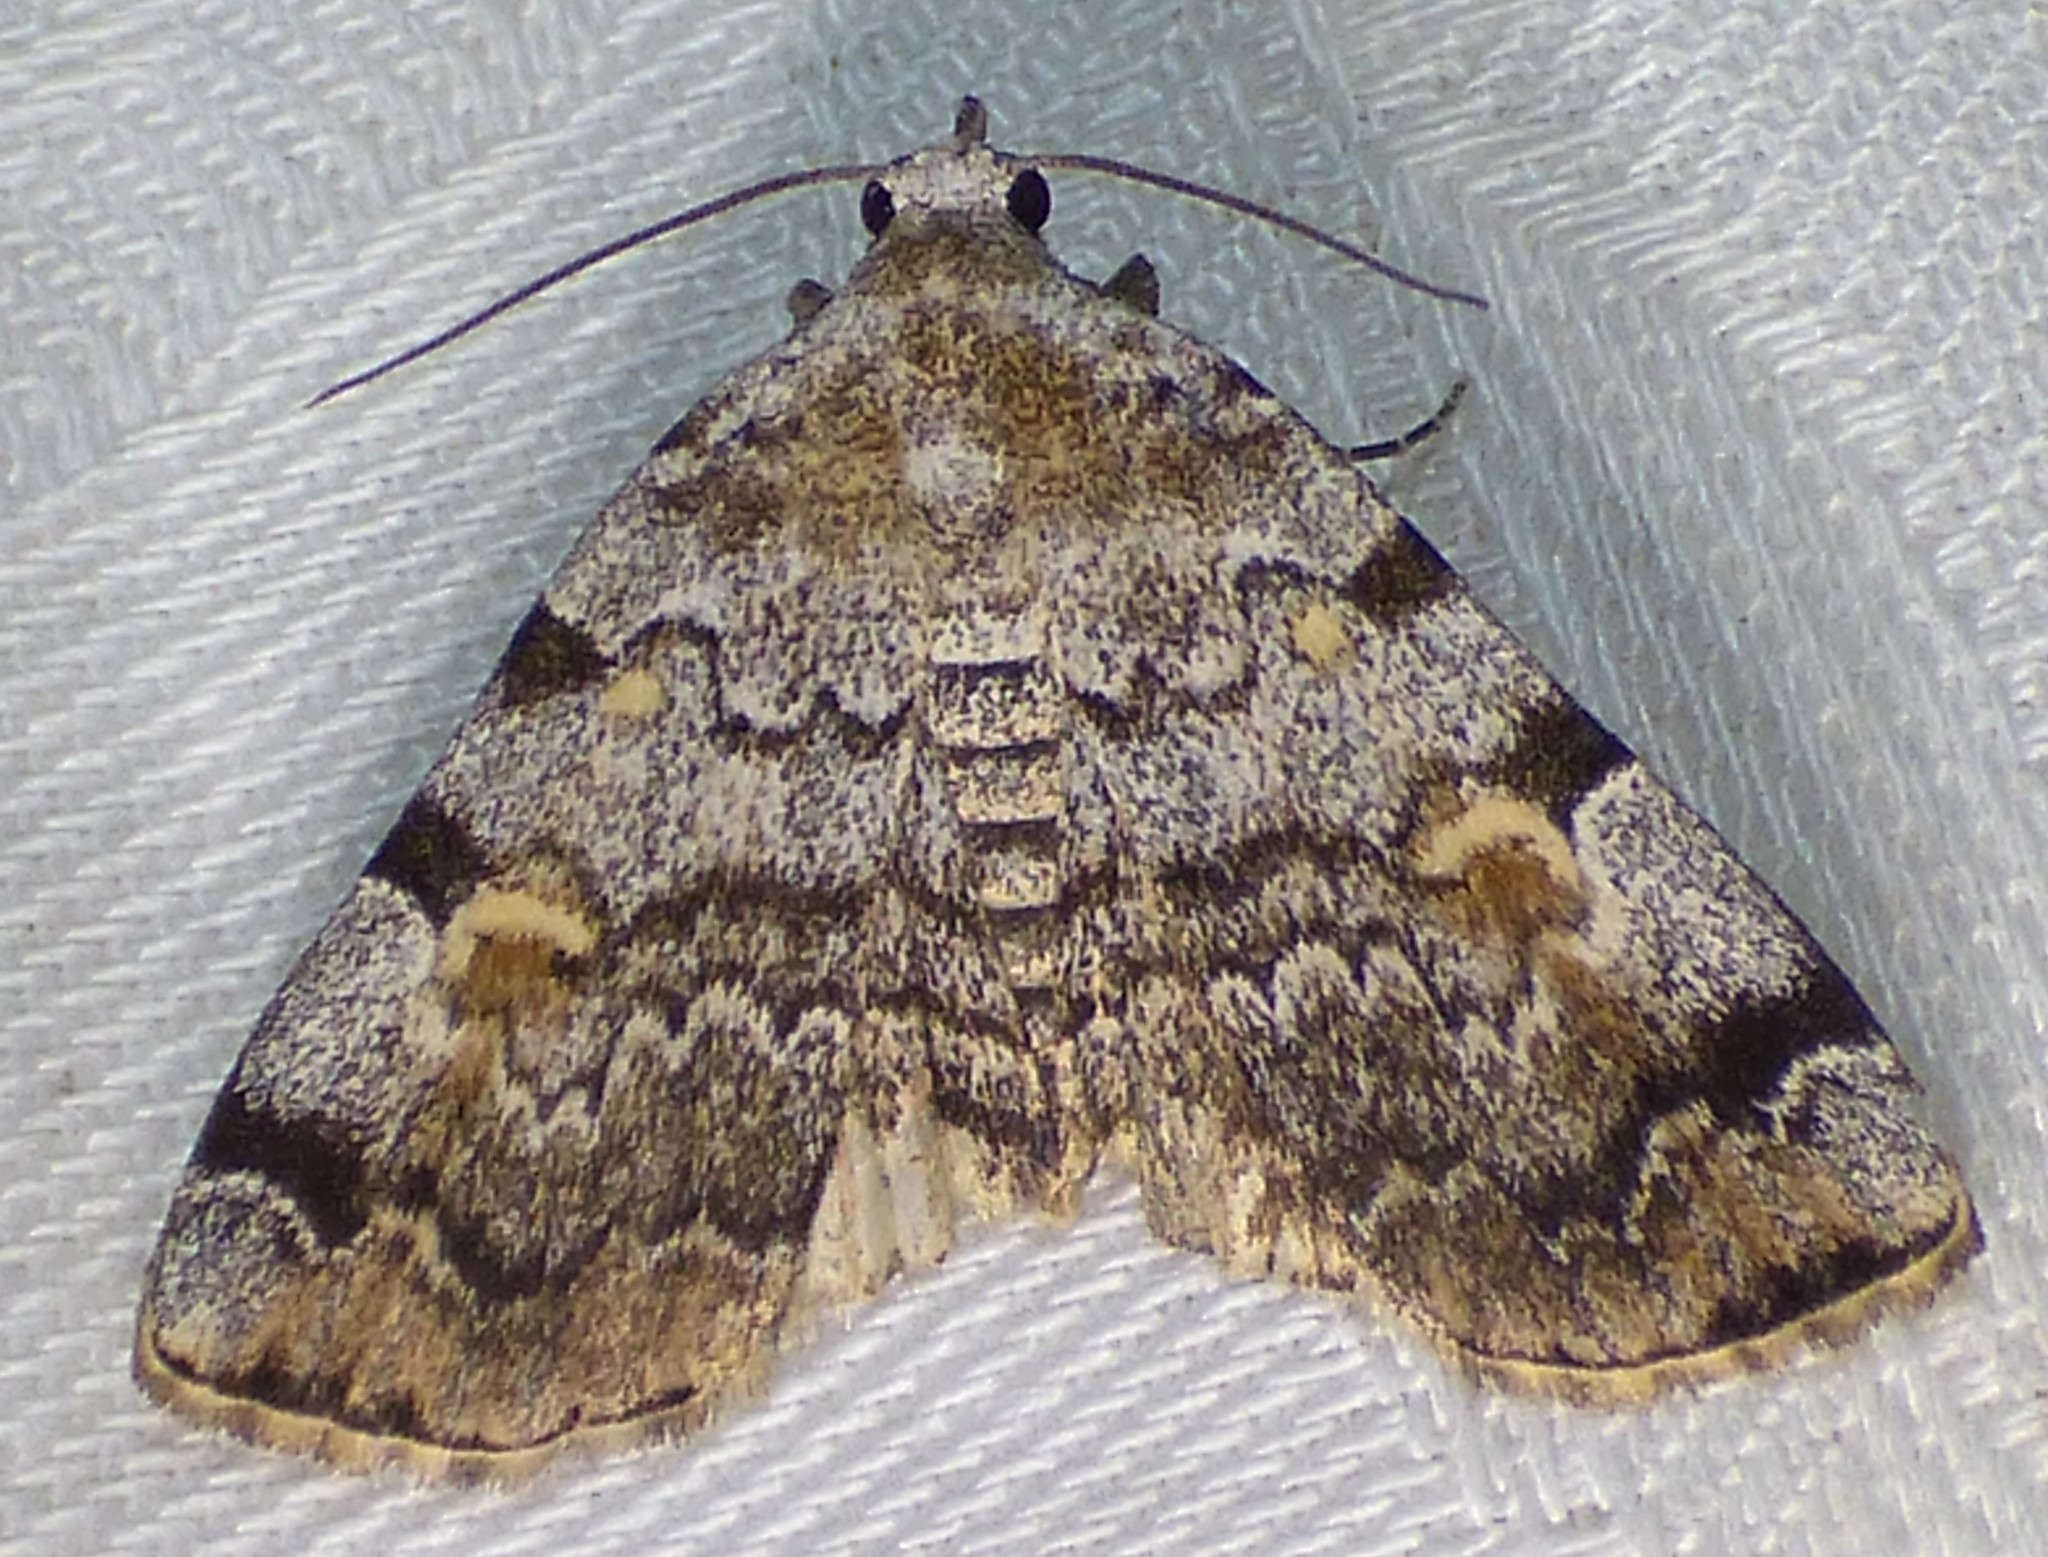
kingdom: Animalia
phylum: Arthropoda
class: Insecta
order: Lepidoptera
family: Erebidae
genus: Idia
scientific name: Idia americalis
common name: American idia moth
